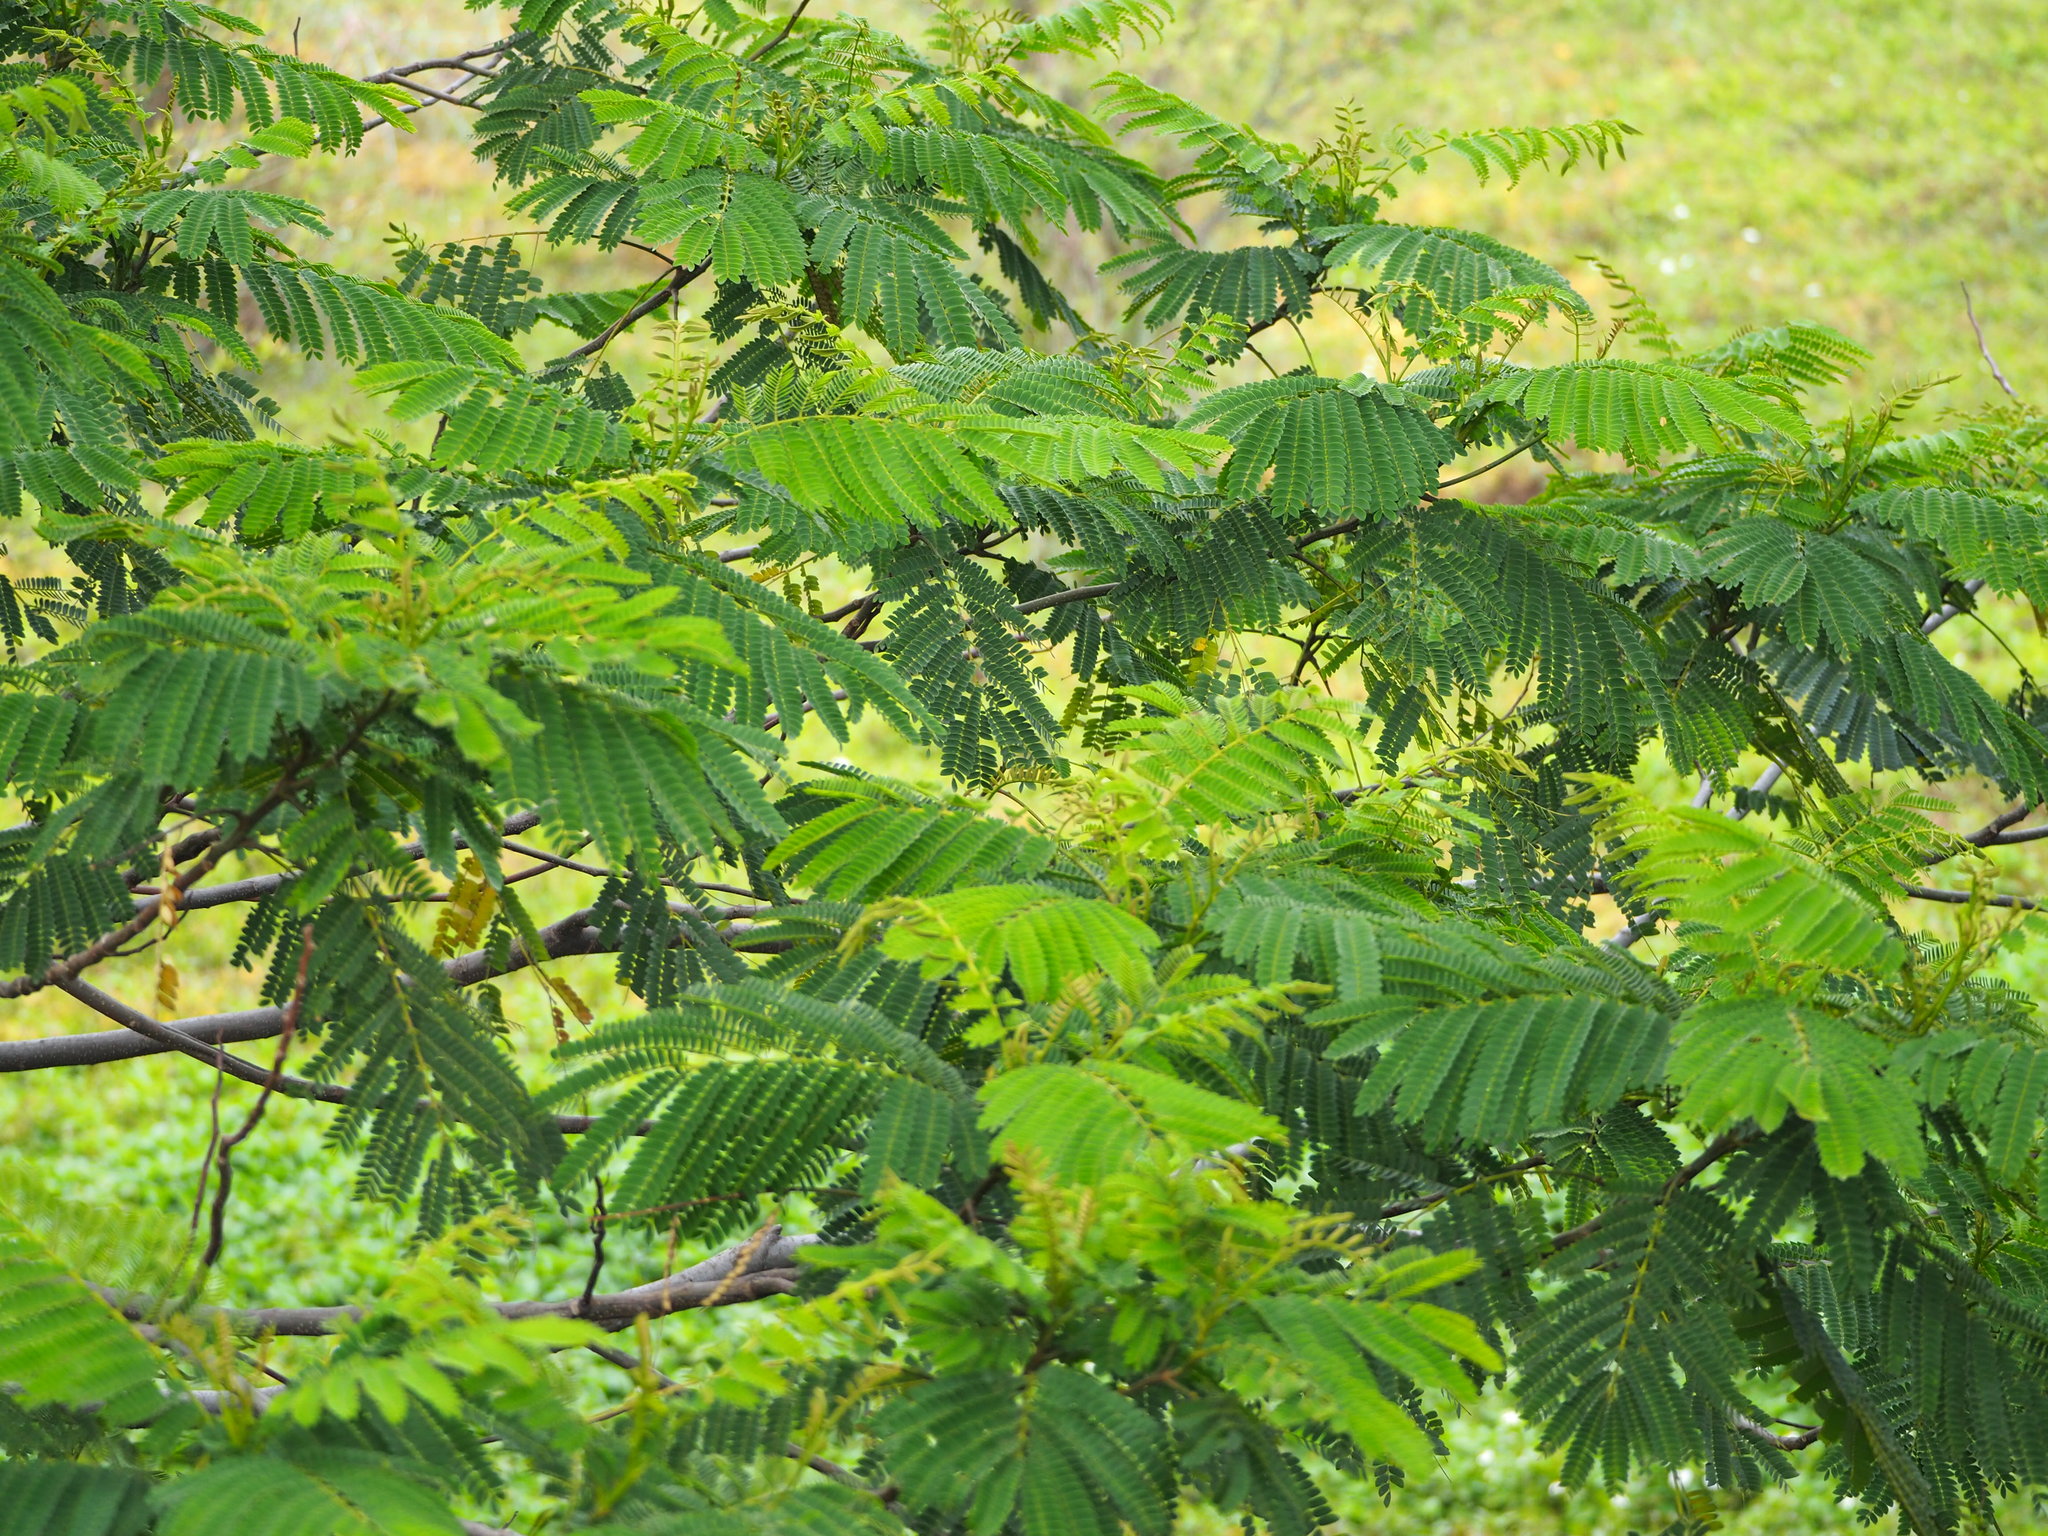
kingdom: Plantae
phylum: Tracheophyta
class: Magnoliopsida
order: Fabales
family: Fabaceae
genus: Falcataria
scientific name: Falcataria falcata
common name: Moluccan albizia
